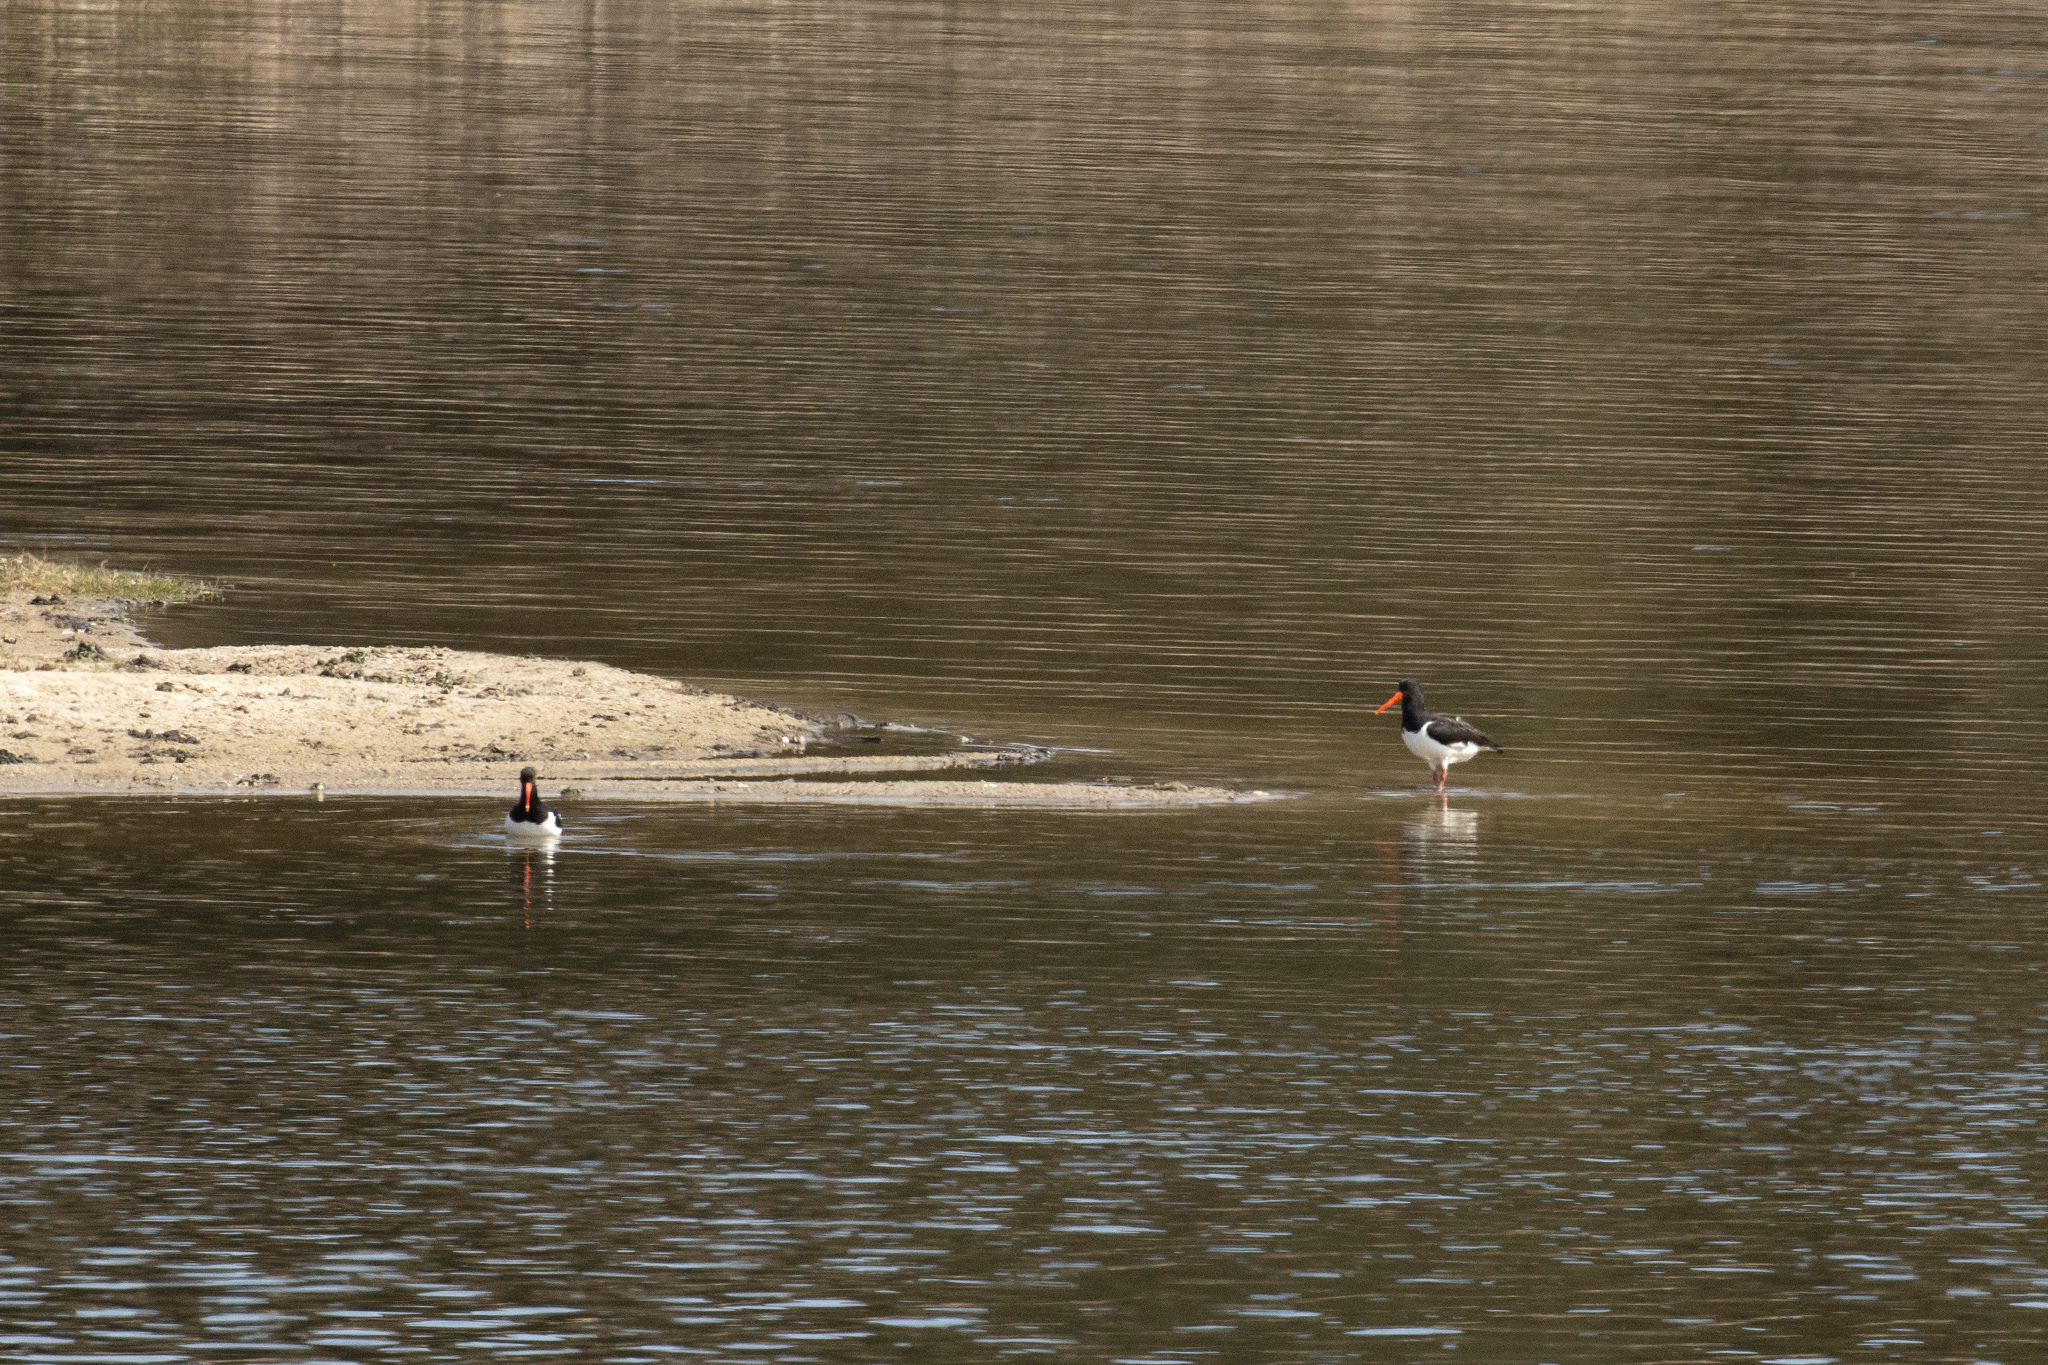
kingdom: Animalia
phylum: Chordata
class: Aves
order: Charadriiformes
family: Haematopodidae
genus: Haematopus
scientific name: Haematopus ostralegus
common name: Eurasian oystercatcher
